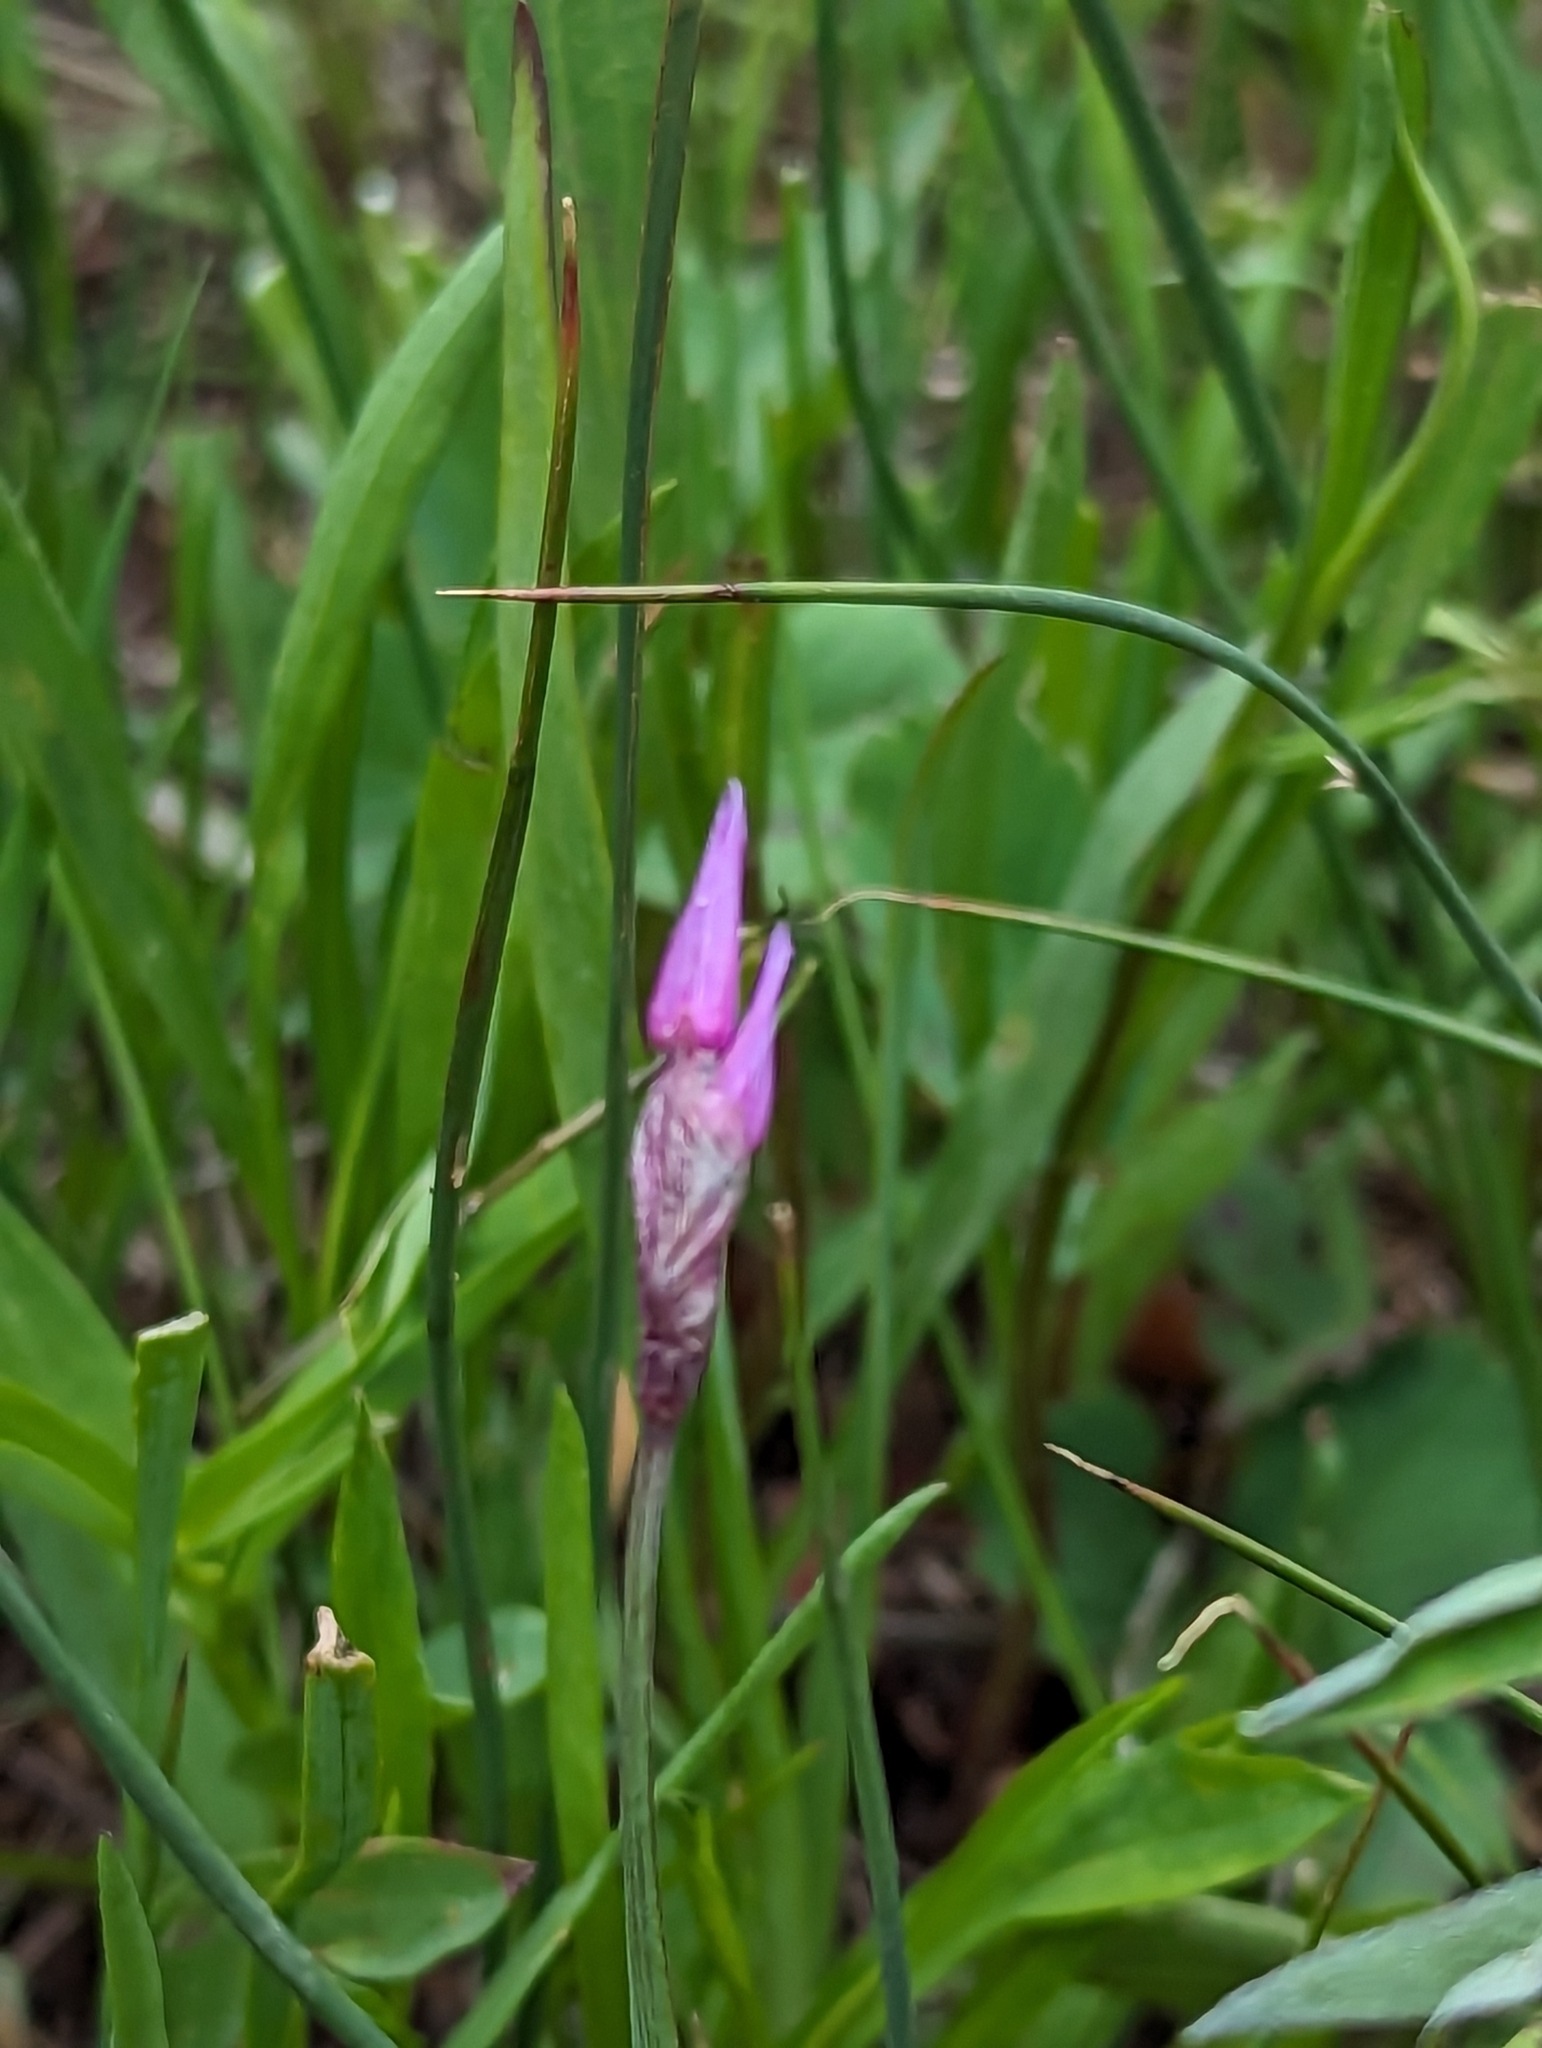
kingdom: Plantae
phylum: Tracheophyta
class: Liliopsida
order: Asparagales
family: Amaryllidaceae
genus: Allium
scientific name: Allium brevistylum
